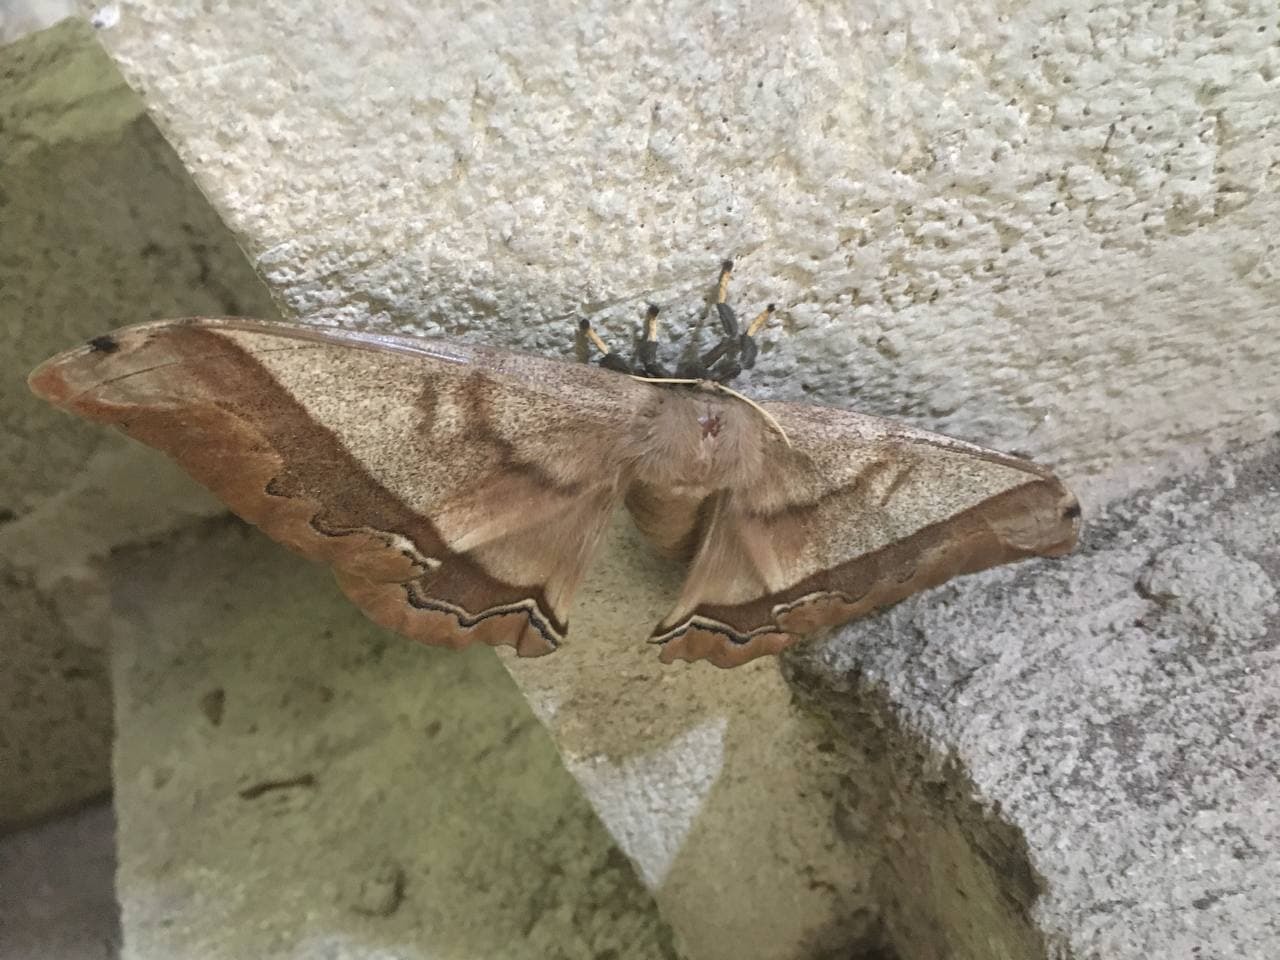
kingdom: Animalia
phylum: Arthropoda
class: Insecta
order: Lepidoptera
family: Saturniidae
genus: Arsenura
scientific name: Arsenura armida
